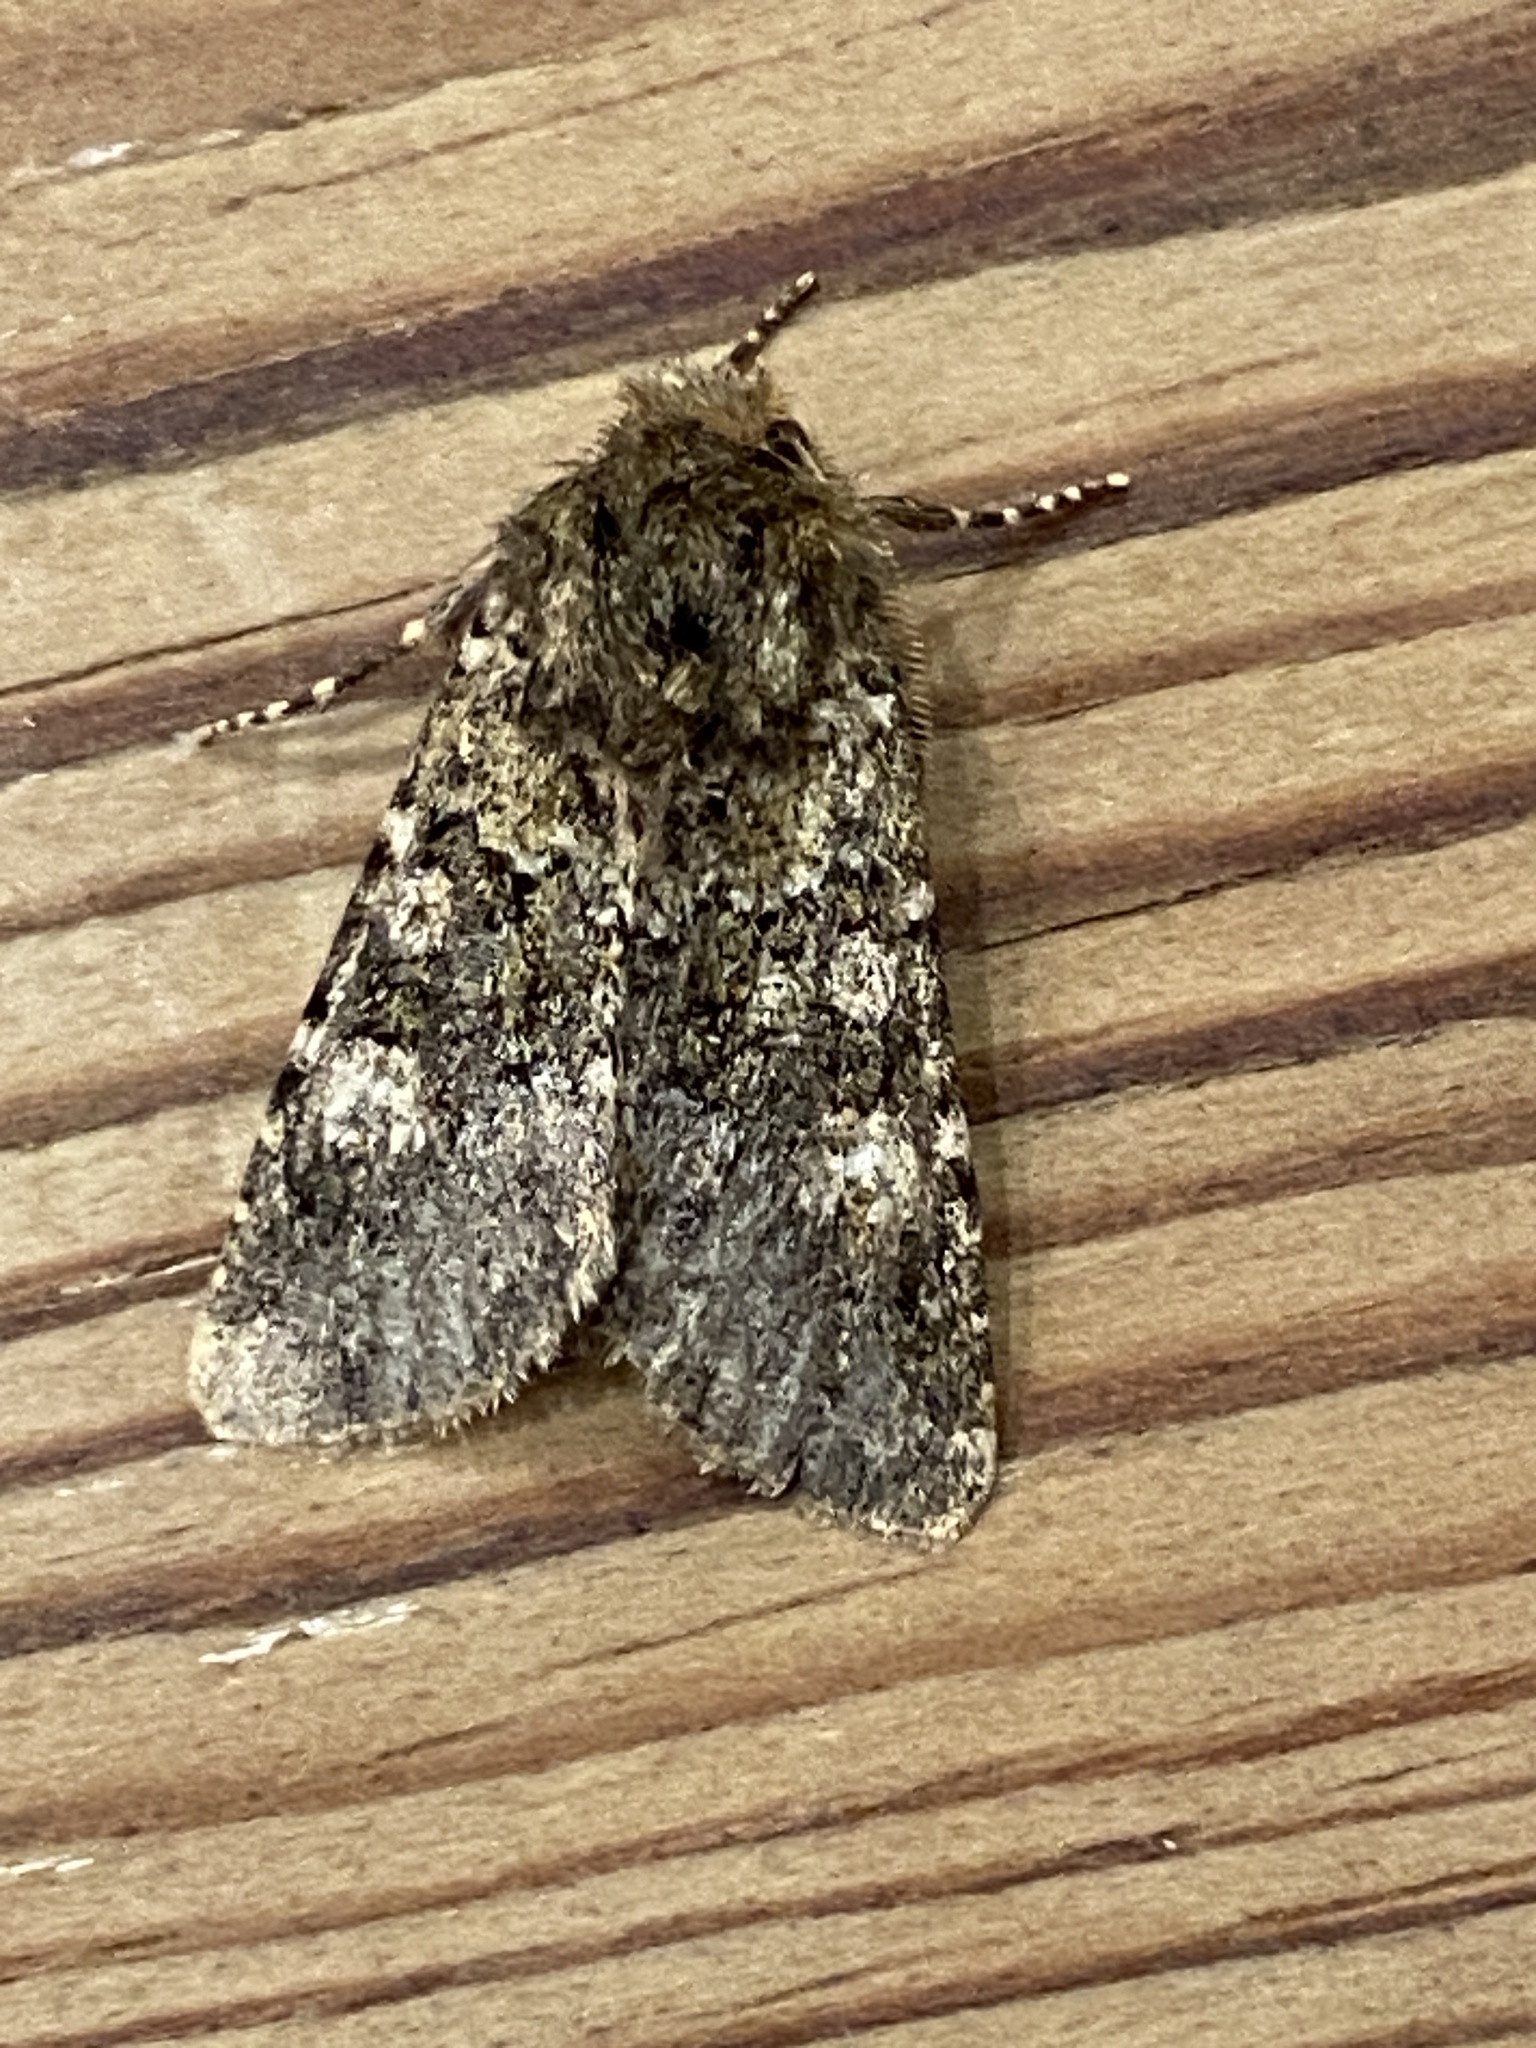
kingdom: Animalia
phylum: Arthropoda
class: Insecta
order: Lepidoptera
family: Noctuidae
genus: Polymixis
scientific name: Polymixis lichenea
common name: Feathered ranunculus
